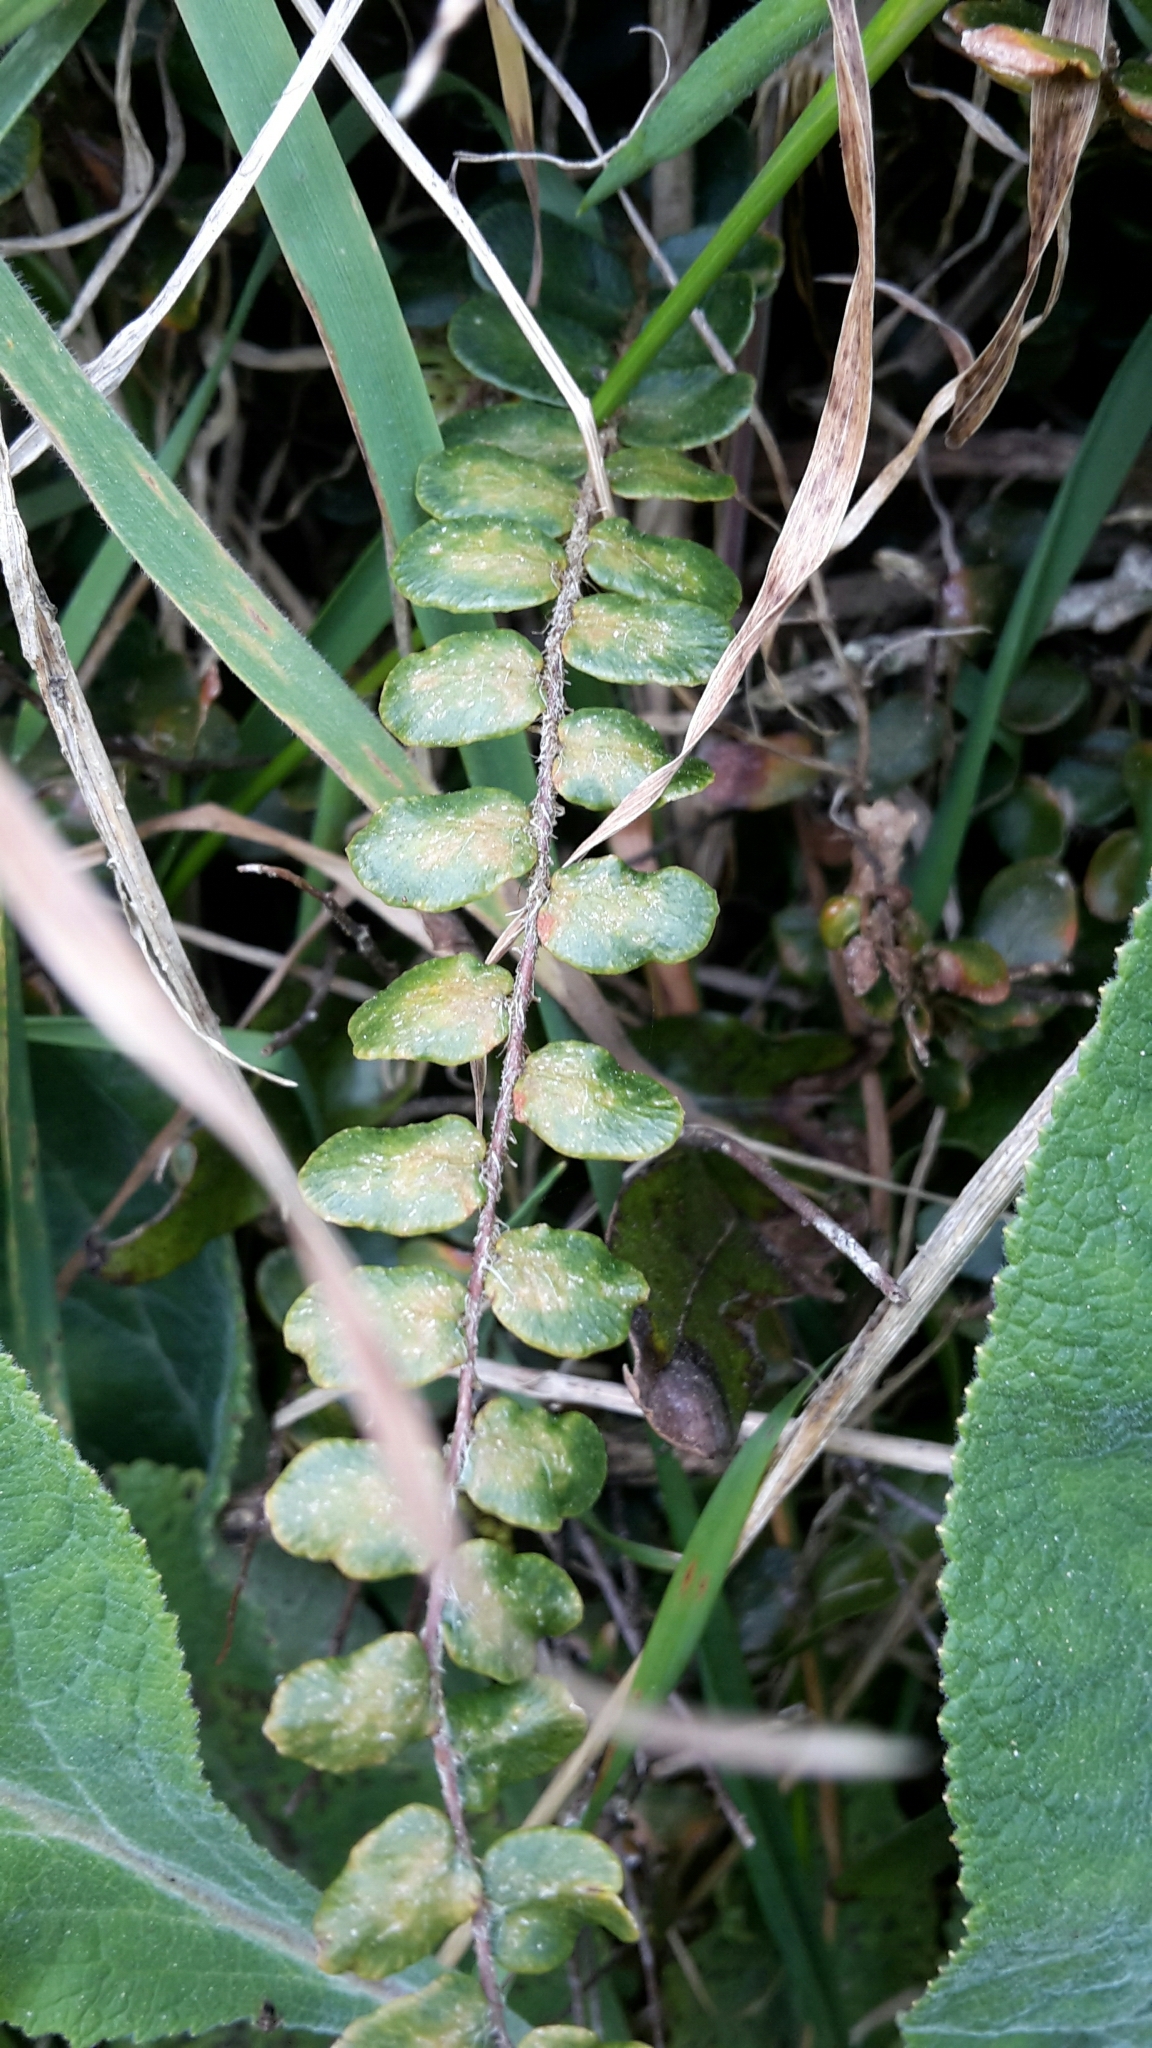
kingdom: Plantae
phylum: Tracheophyta
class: Polypodiopsida
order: Polypodiales
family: Pteridaceae
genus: Pellaea
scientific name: Pellaea rotundifolia
